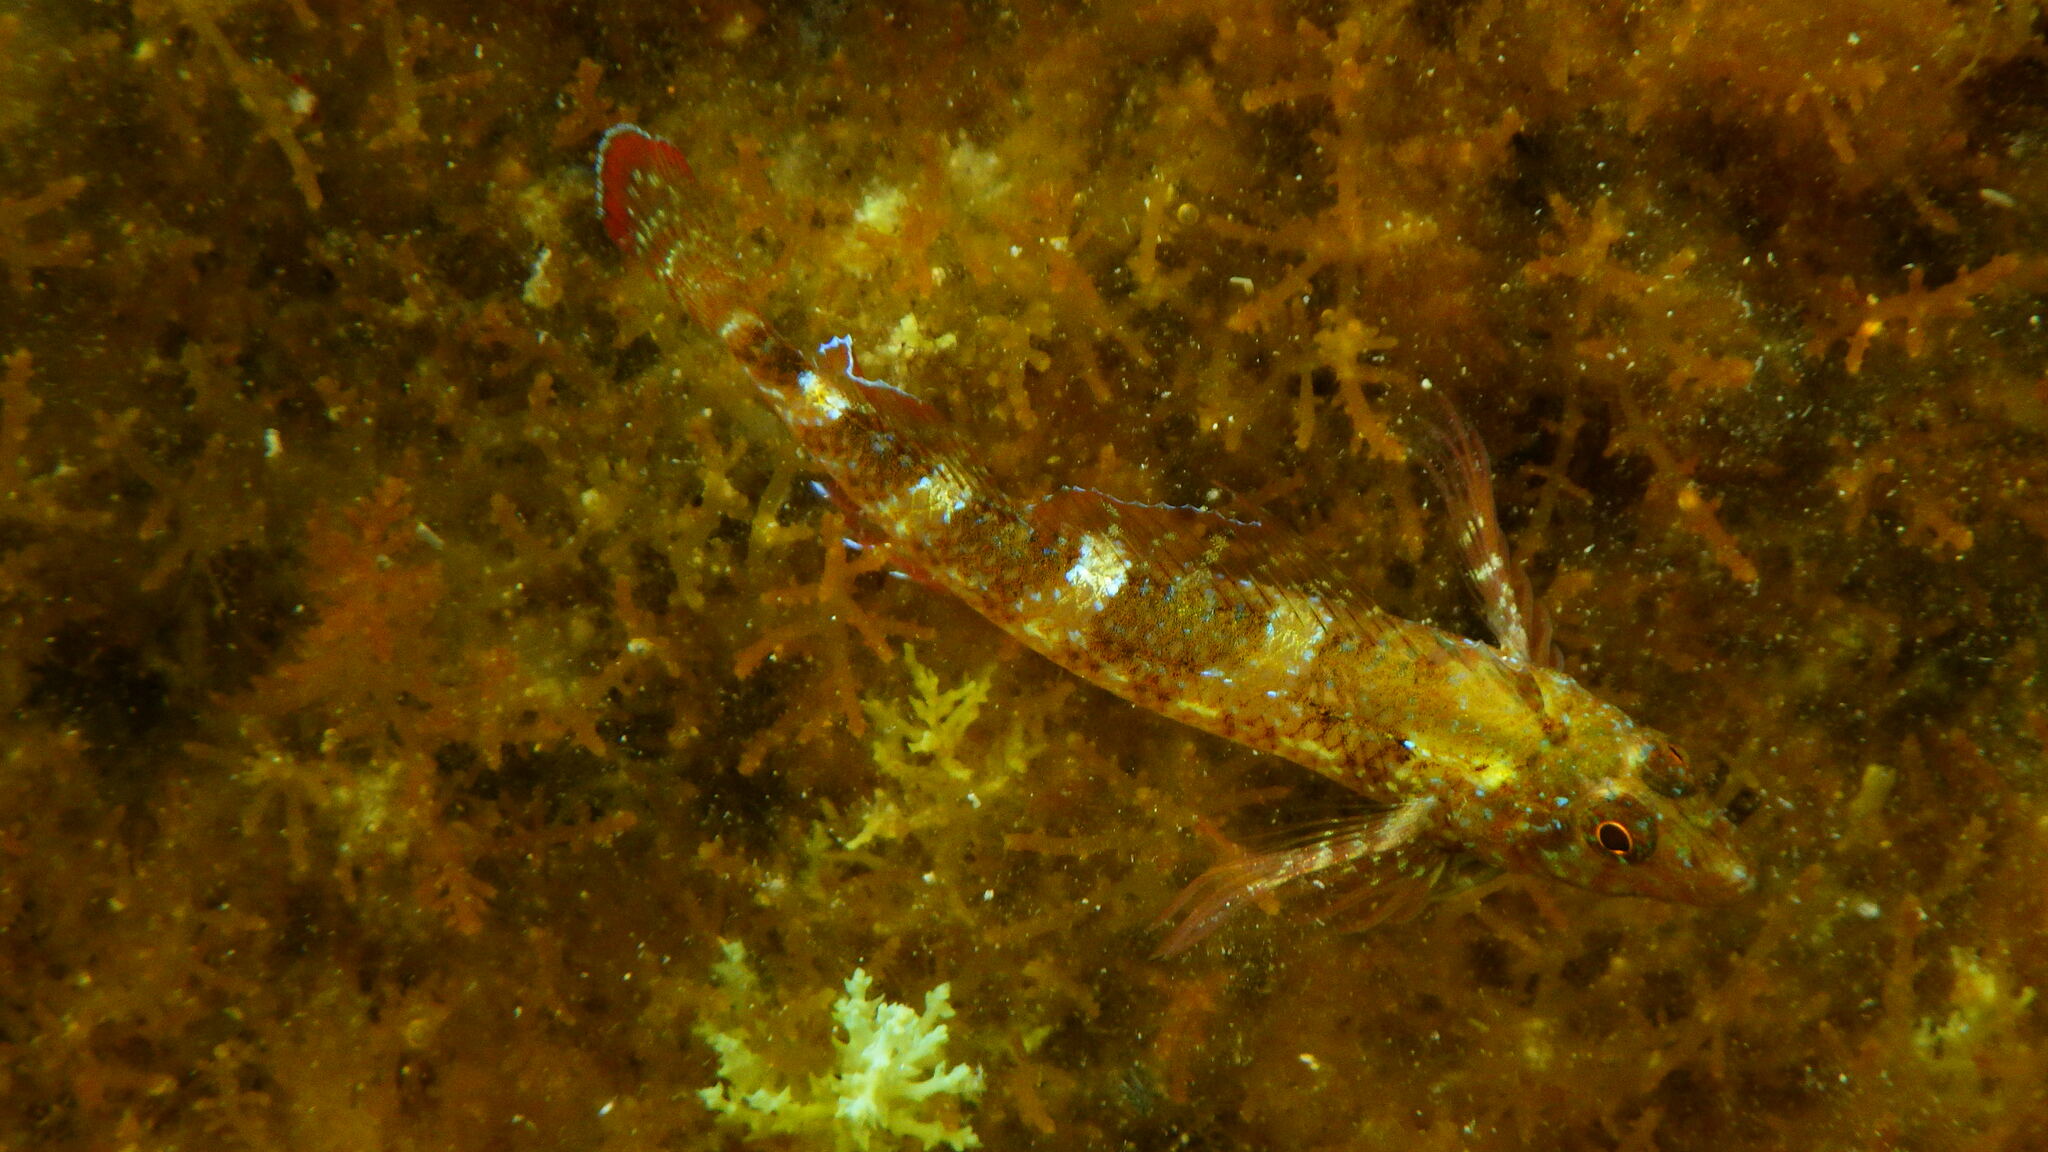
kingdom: Animalia
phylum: Chordata
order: Perciformes
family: Tripterygiidae
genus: Tripterygion
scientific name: Tripterygion tripteronotum
